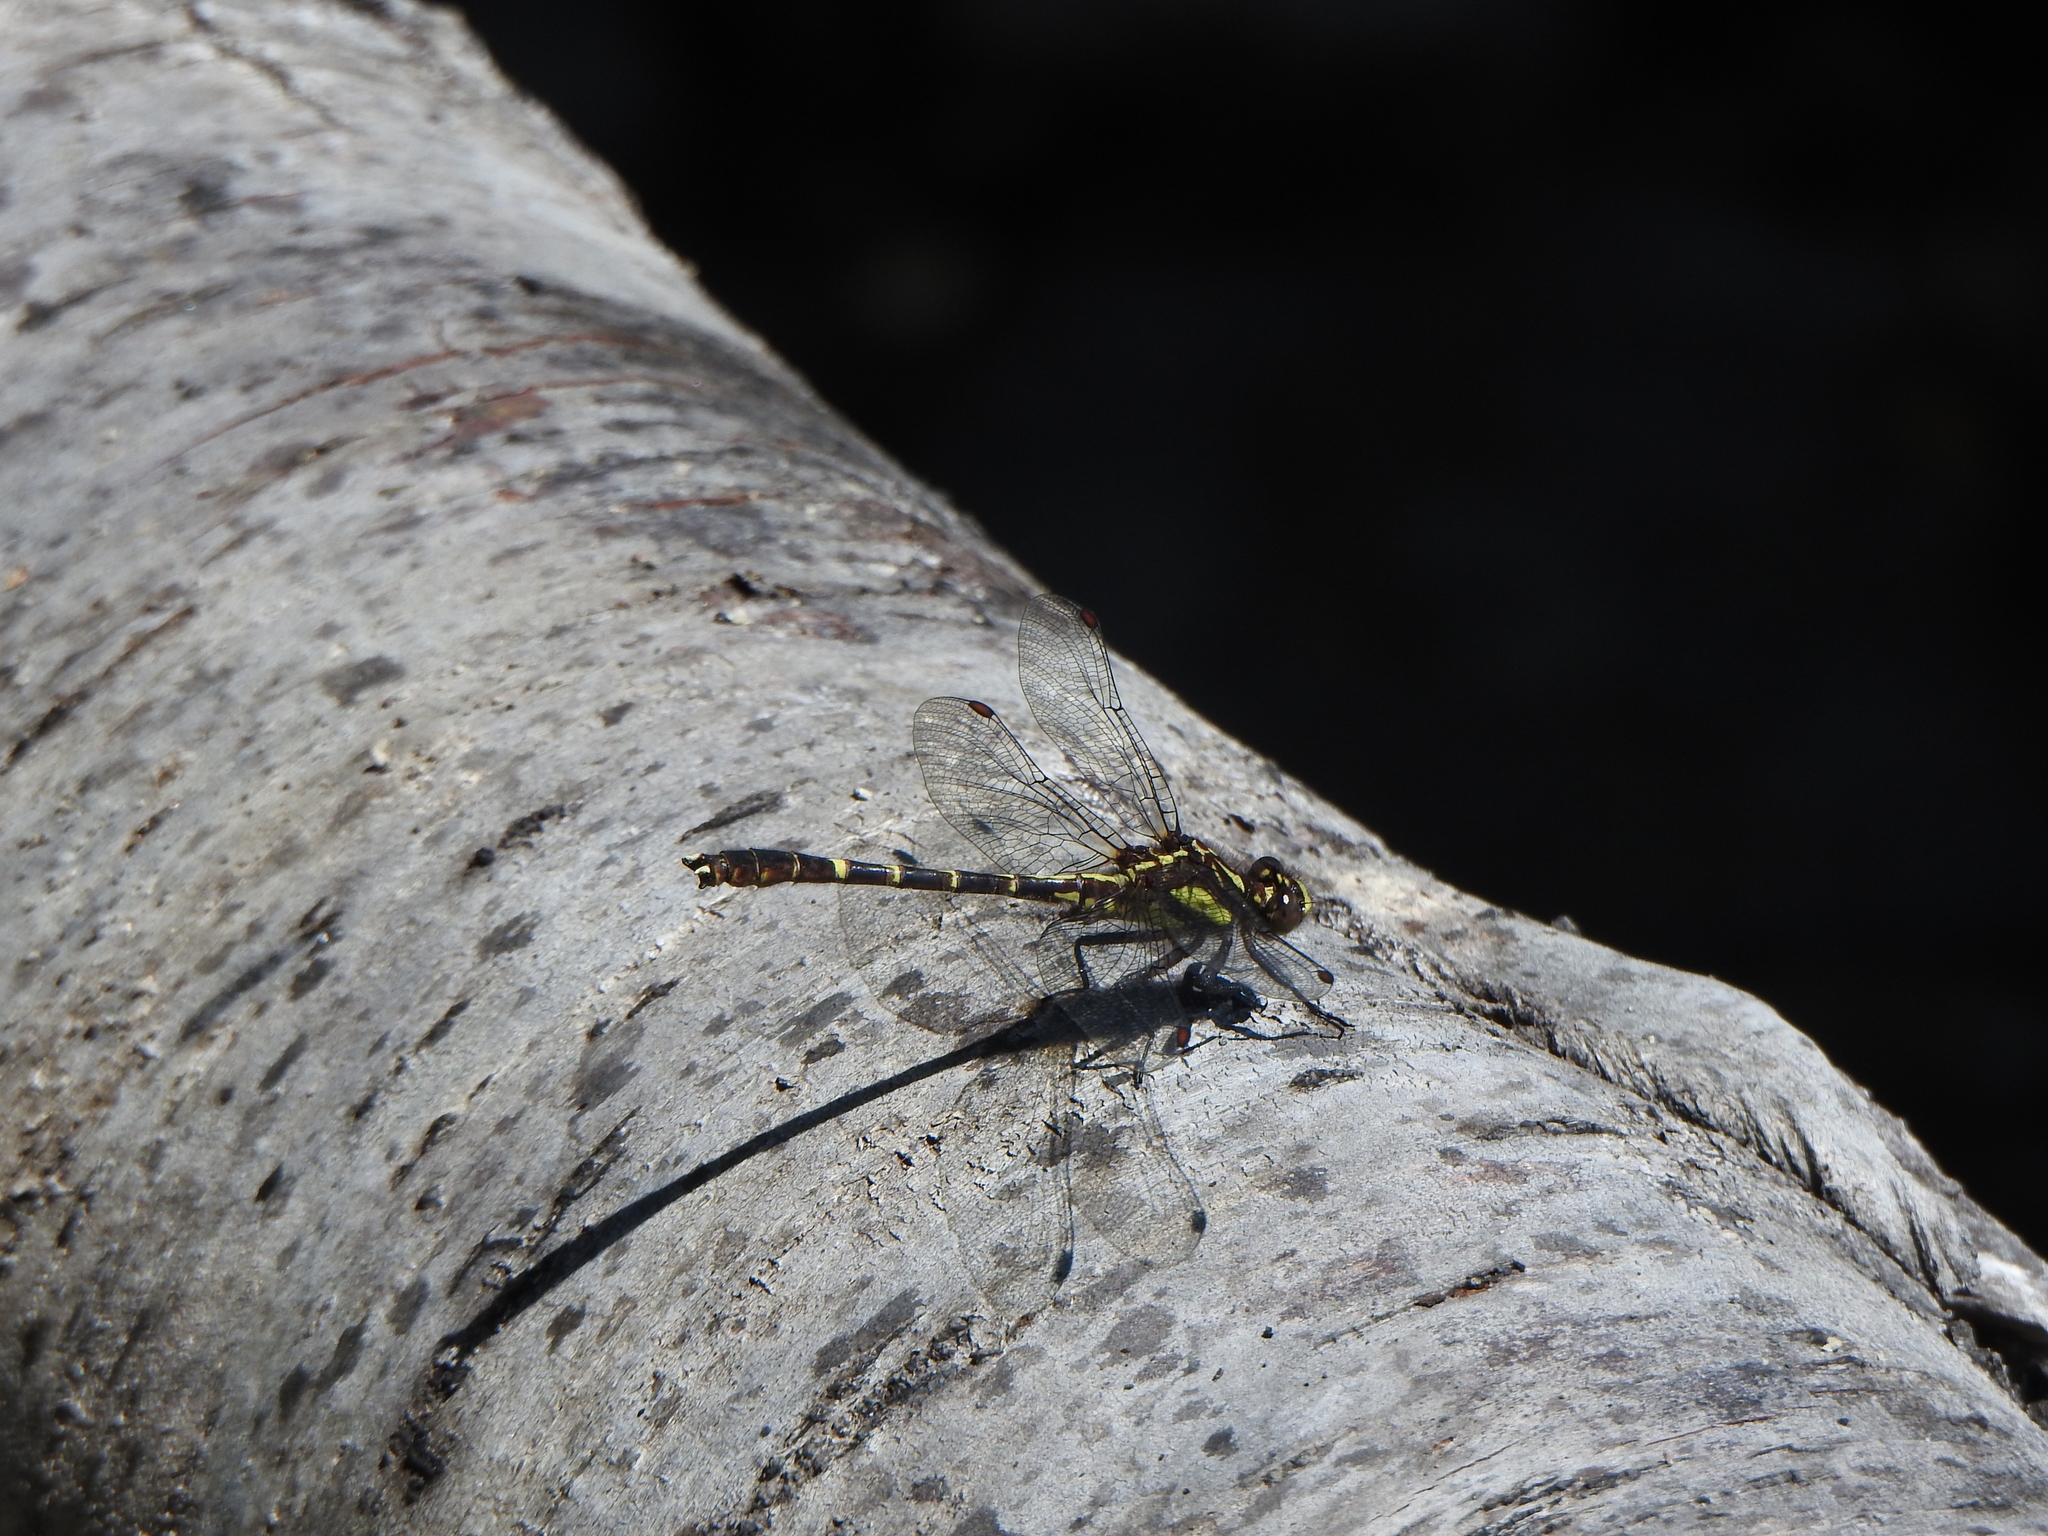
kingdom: Animalia
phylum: Arthropoda
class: Insecta
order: Odonata
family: Gomphidae
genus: Neogomphus
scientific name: Neogomphus edenticulatus
